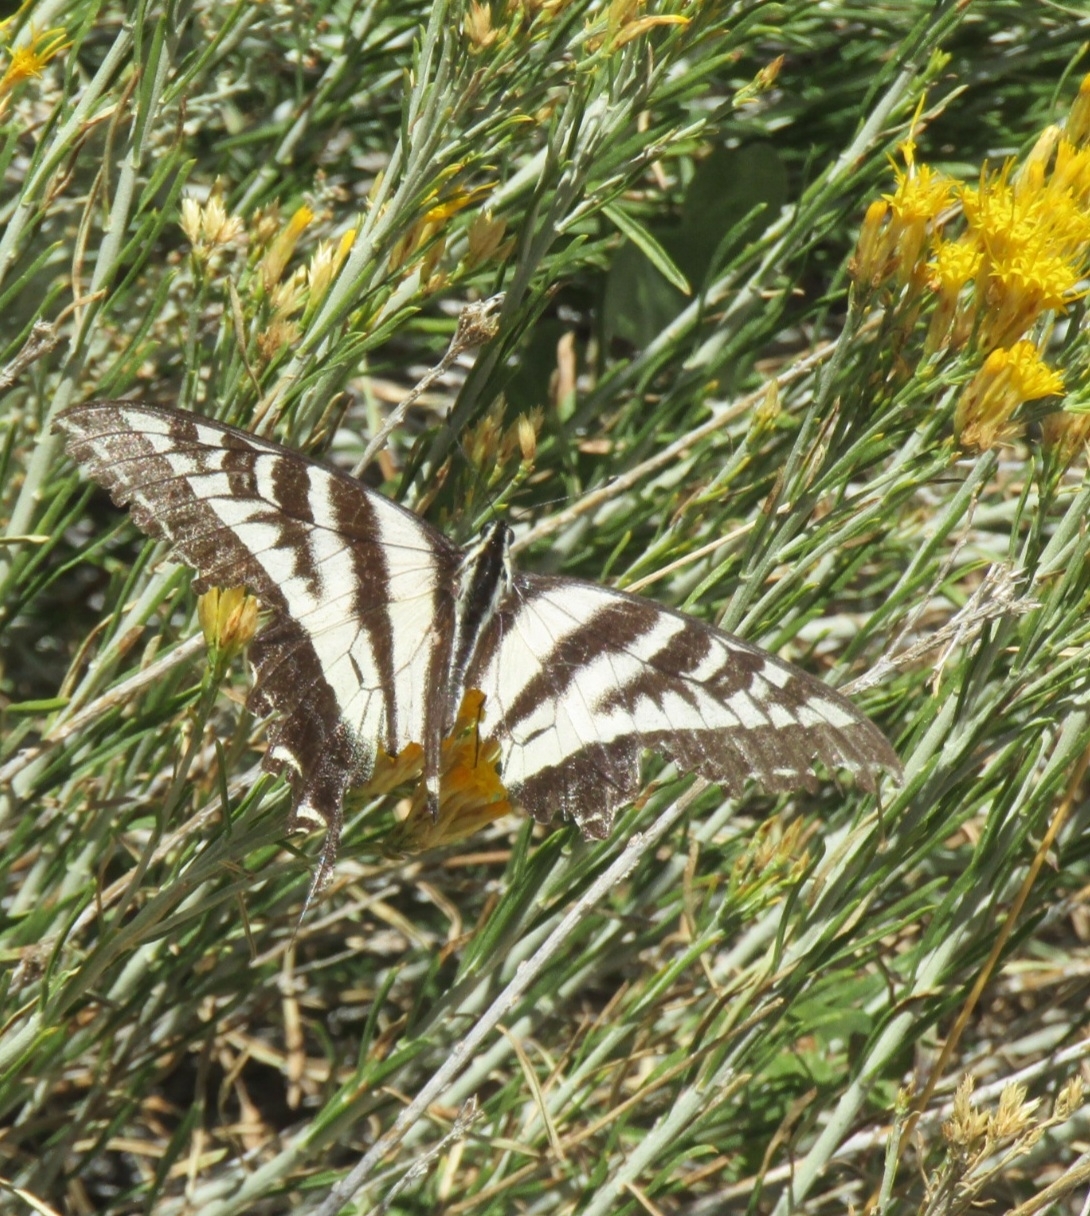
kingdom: Animalia
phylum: Arthropoda
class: Insecta
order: Lepidoptera
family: Papilionidae
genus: Papilio
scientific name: Papilio eurymedon
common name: Pale tiger swallowtail
